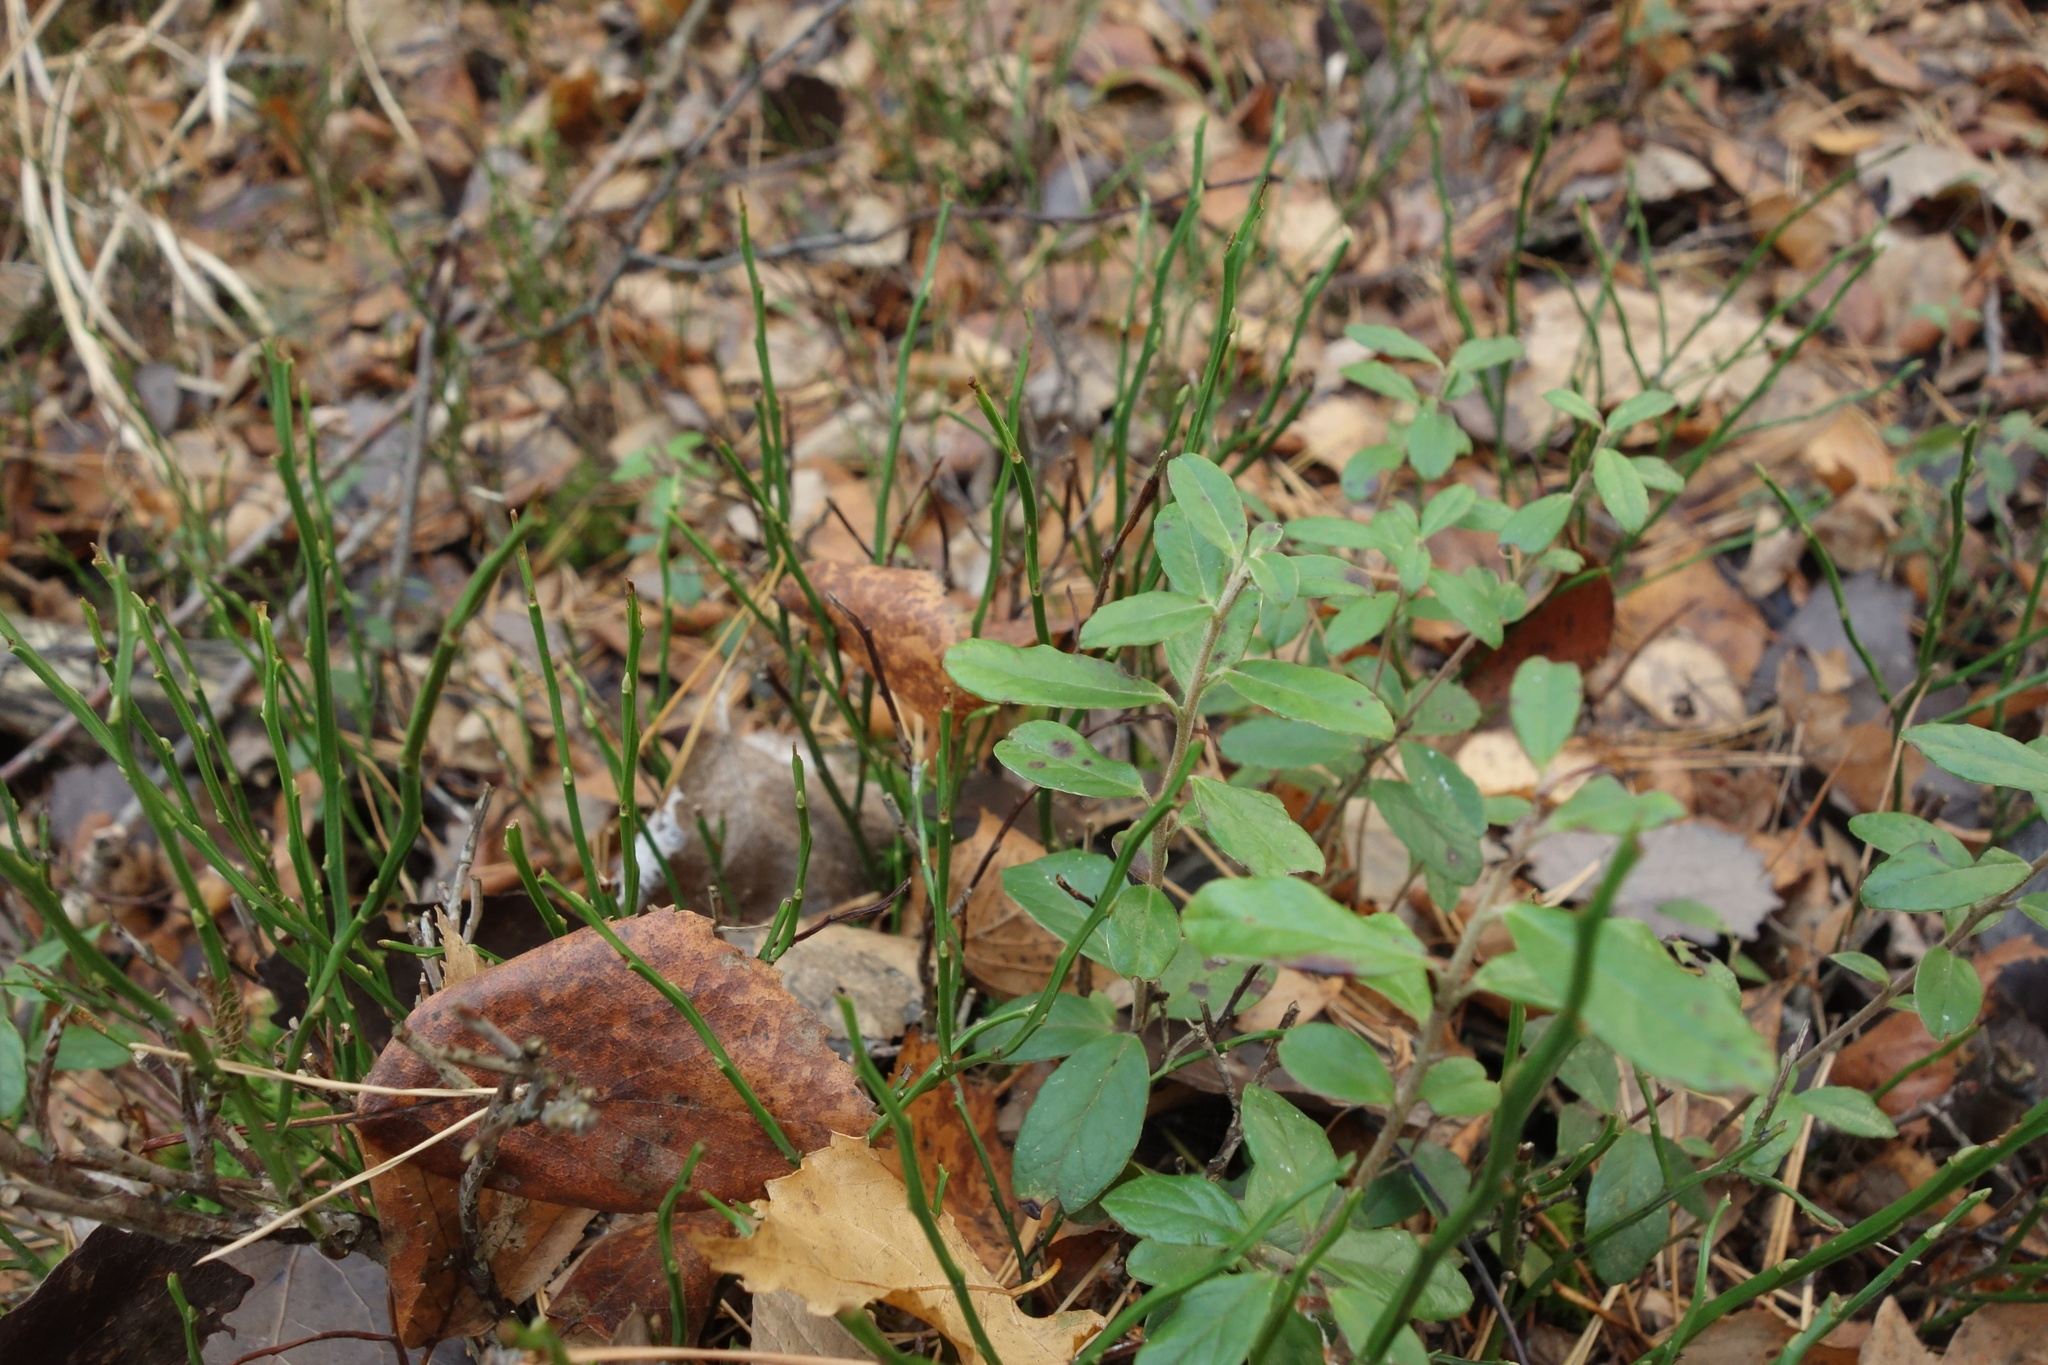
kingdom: Plantae
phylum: Tracheophyta
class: Magnoliopsida
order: Ericales
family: Ericaceae
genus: Vaccinium
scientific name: Vaccinium vitis-idaea
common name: Cowberry
